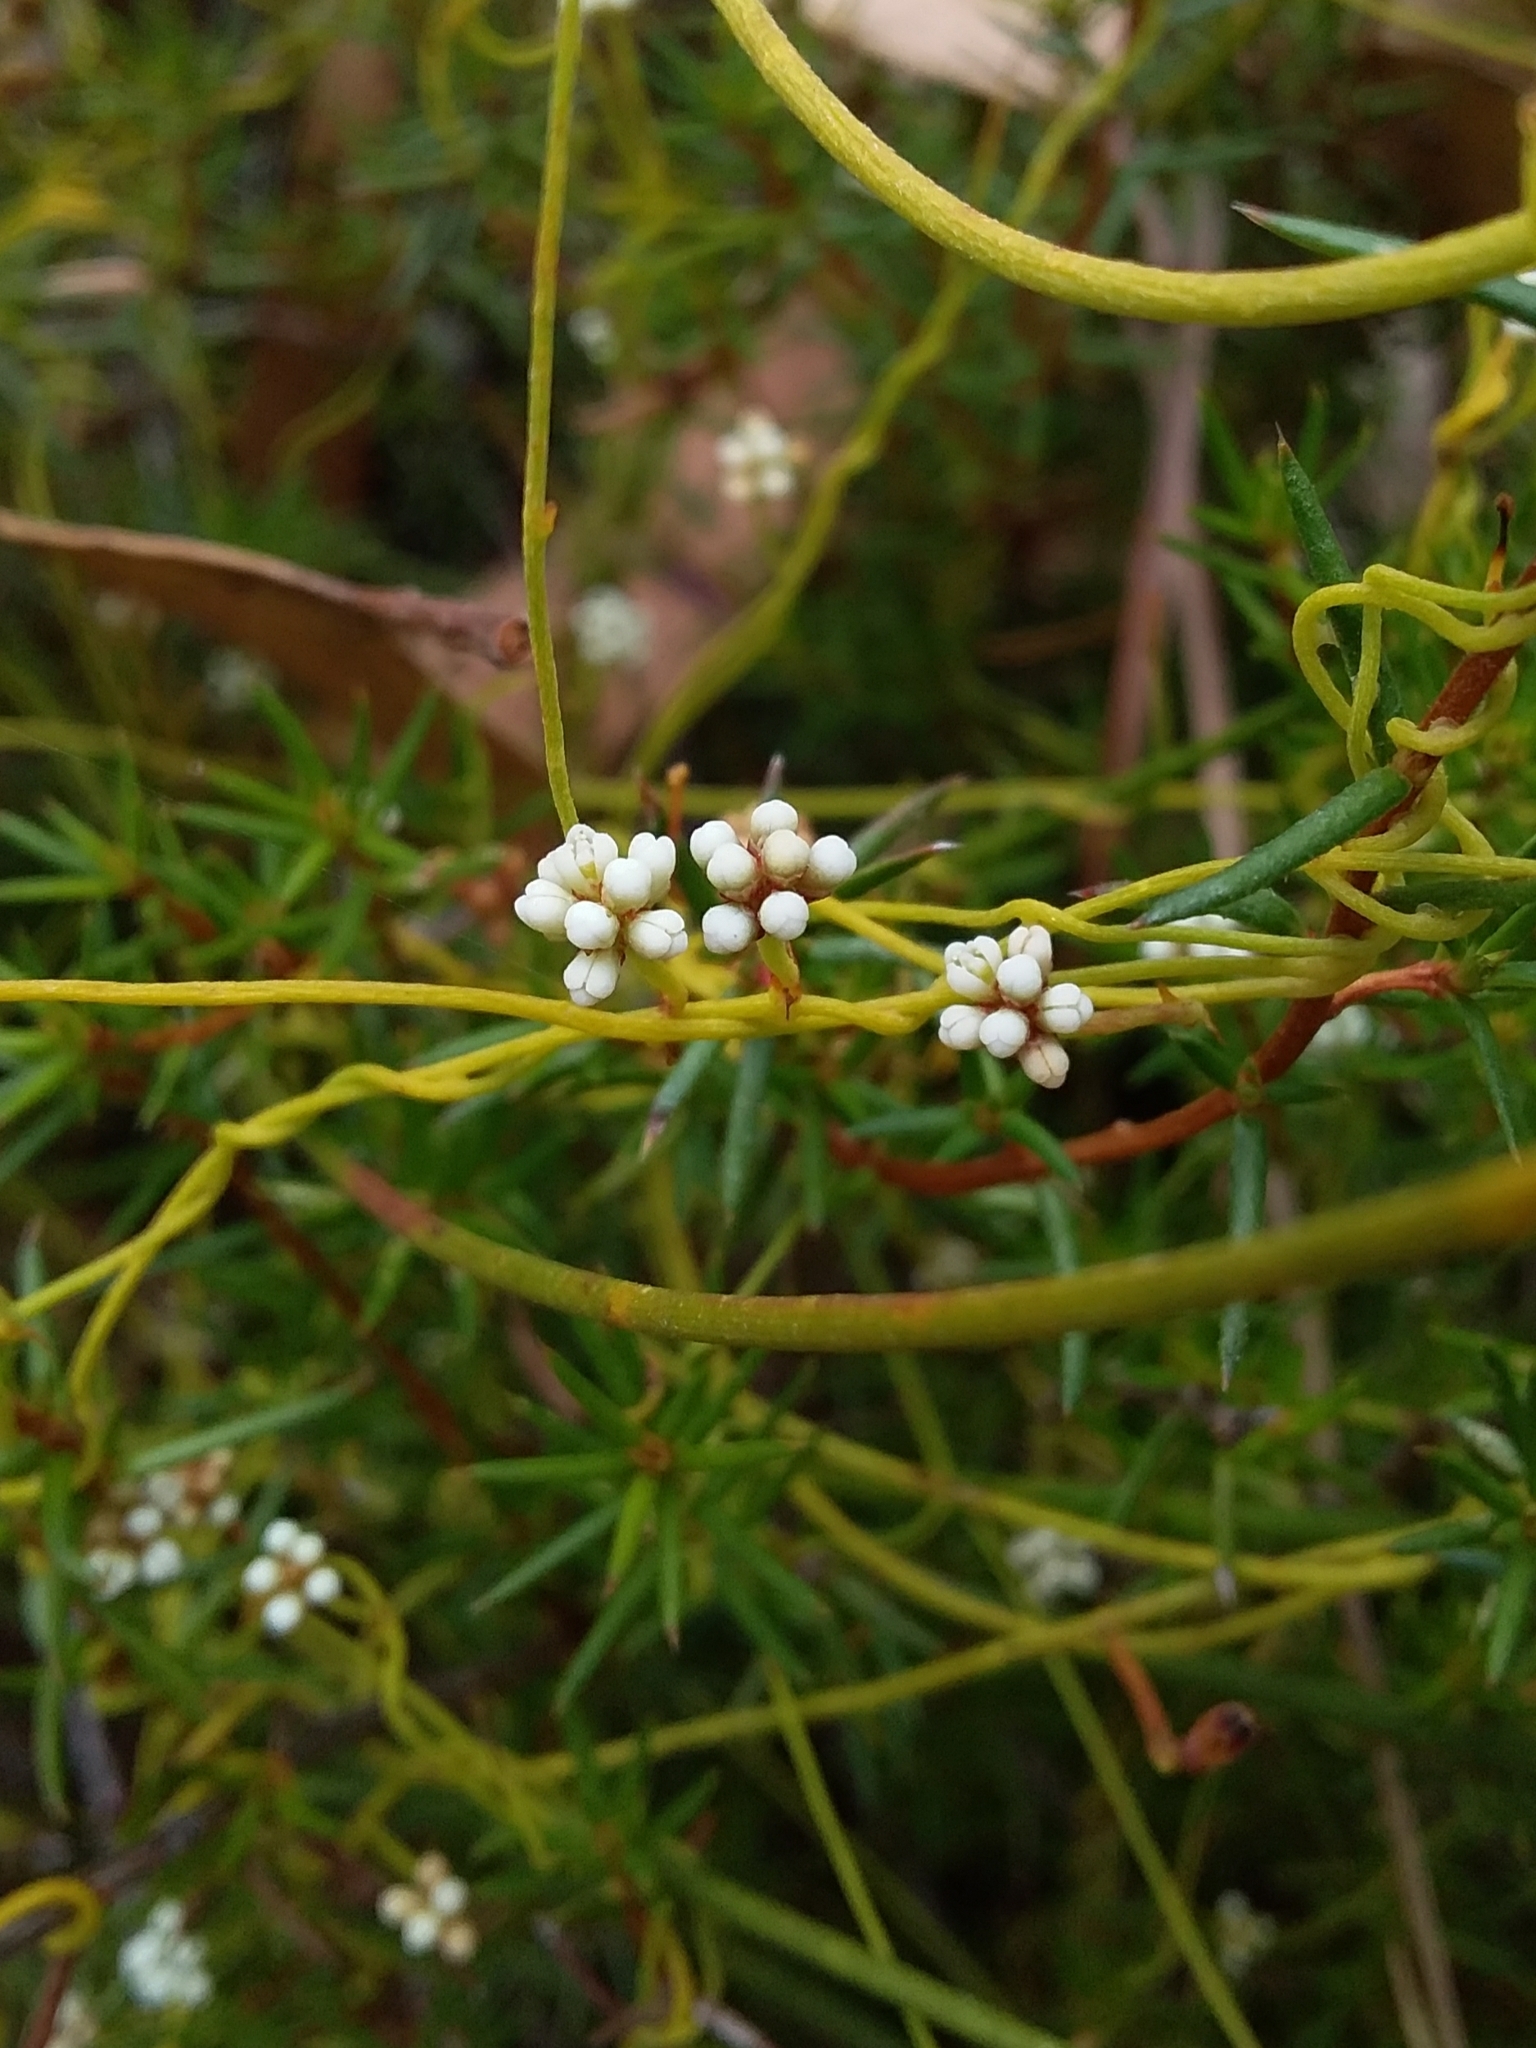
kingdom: Plantae
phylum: Tracheophyta
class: Magnoliopsida
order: Laurales
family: Lauraceae
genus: Cassytha
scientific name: Cassytha glabella
